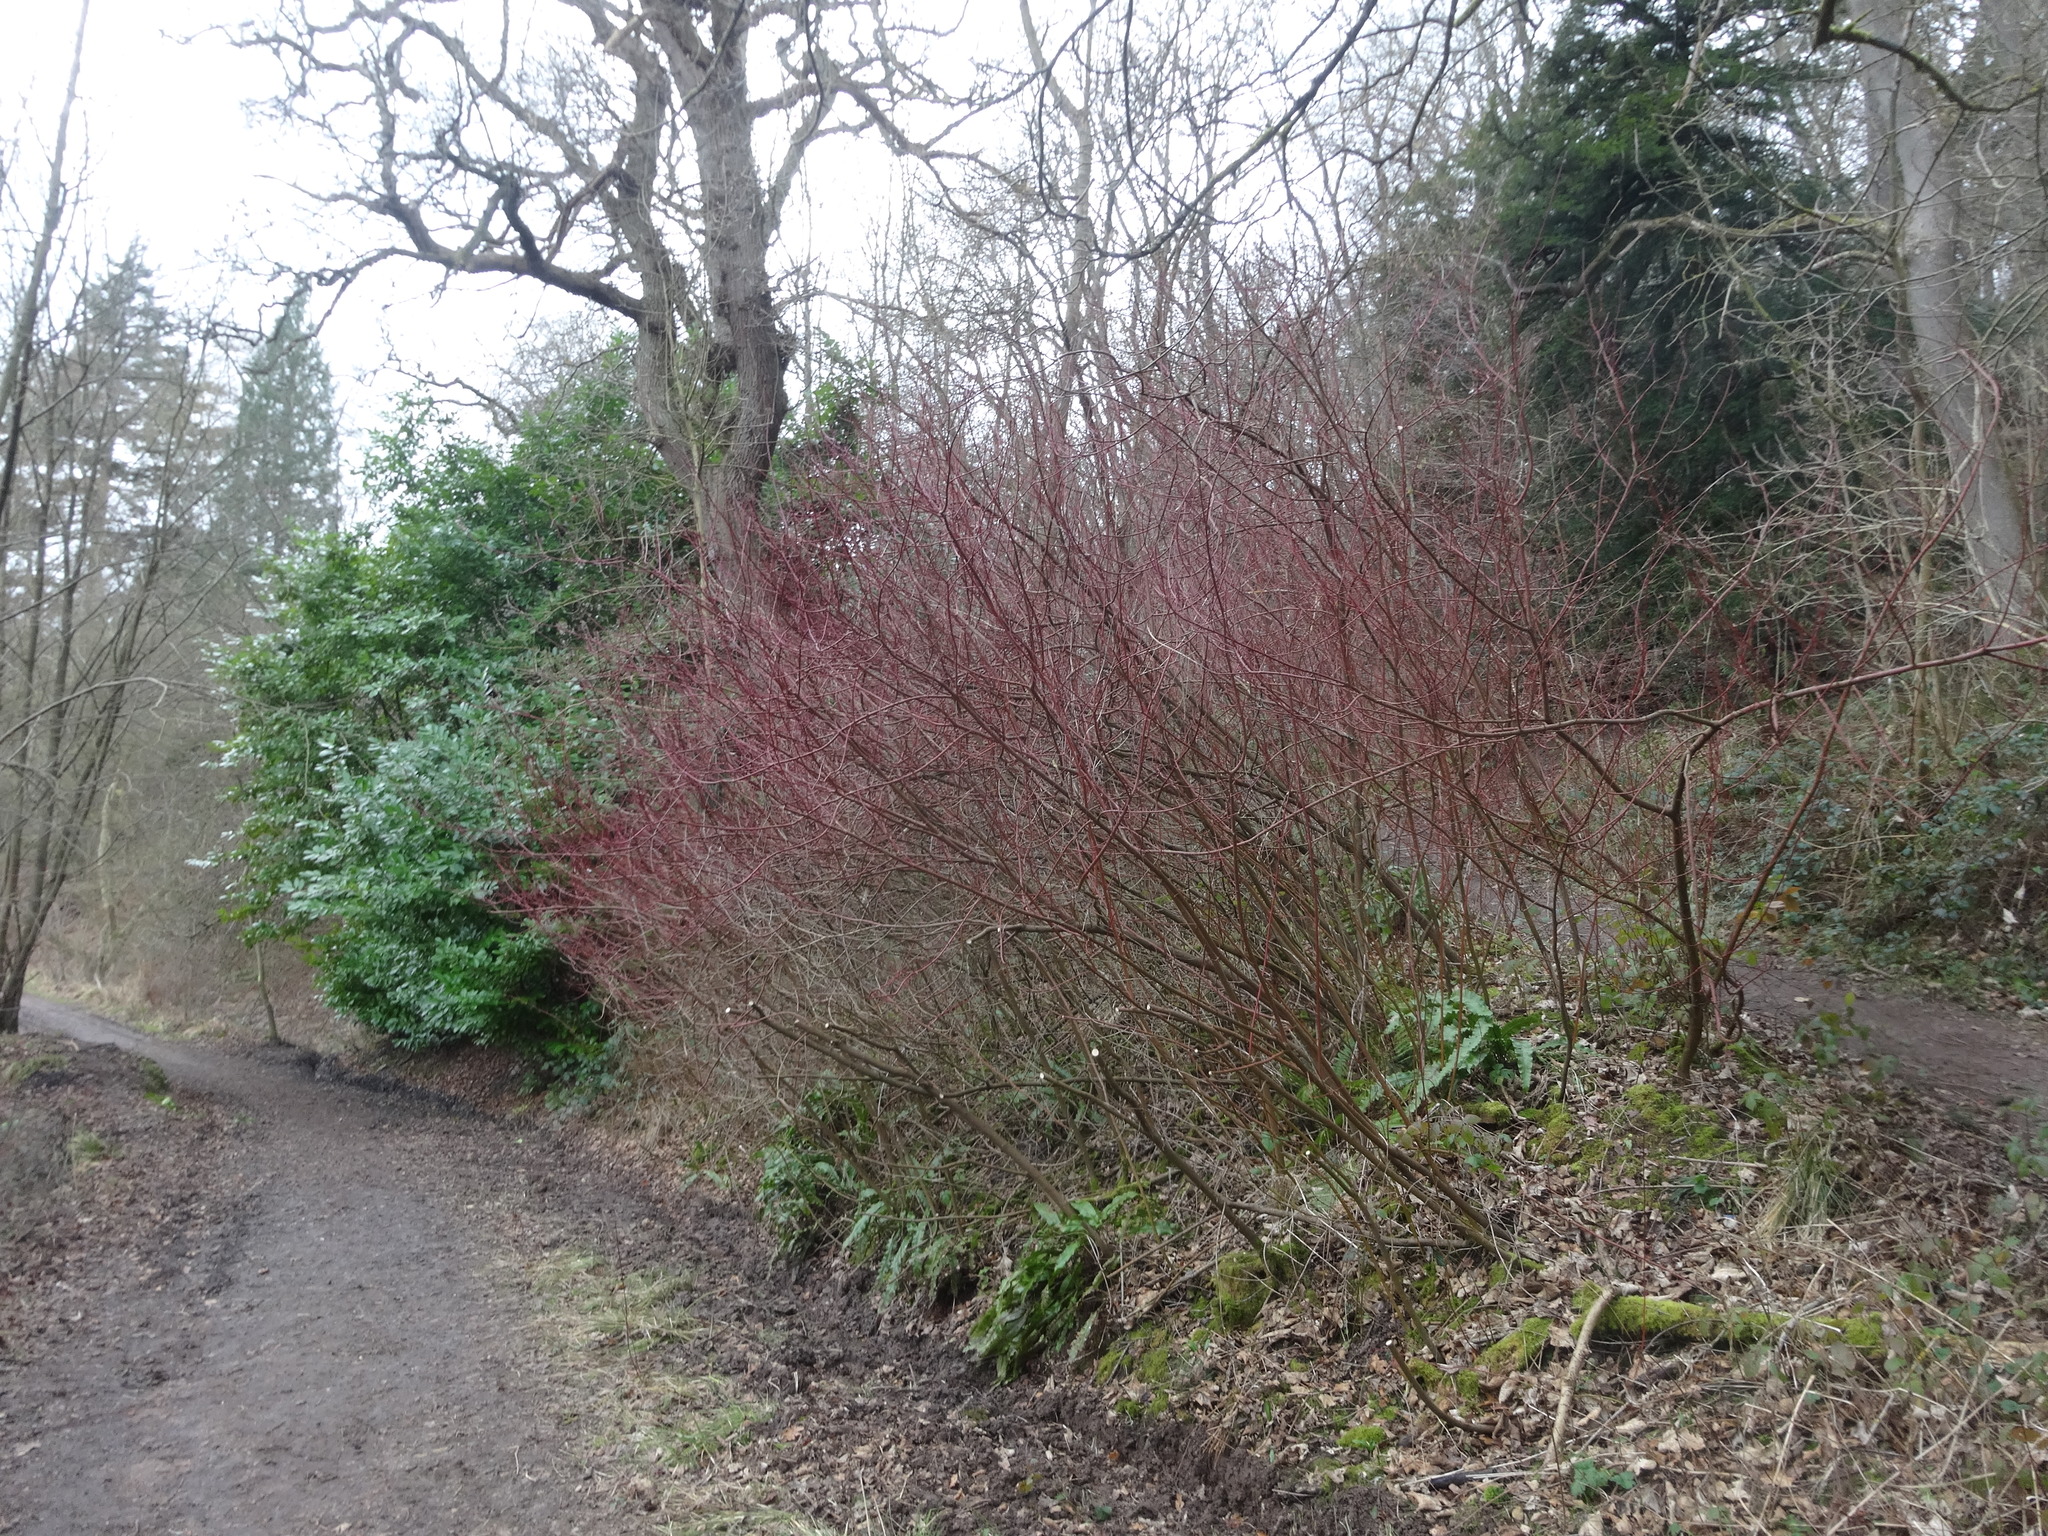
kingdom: Plantae
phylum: Tracheophyta
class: Magnoliopsida
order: Cornales
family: Cornaceae
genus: Cornus
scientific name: Cornus sanguinea
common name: Dogwood
